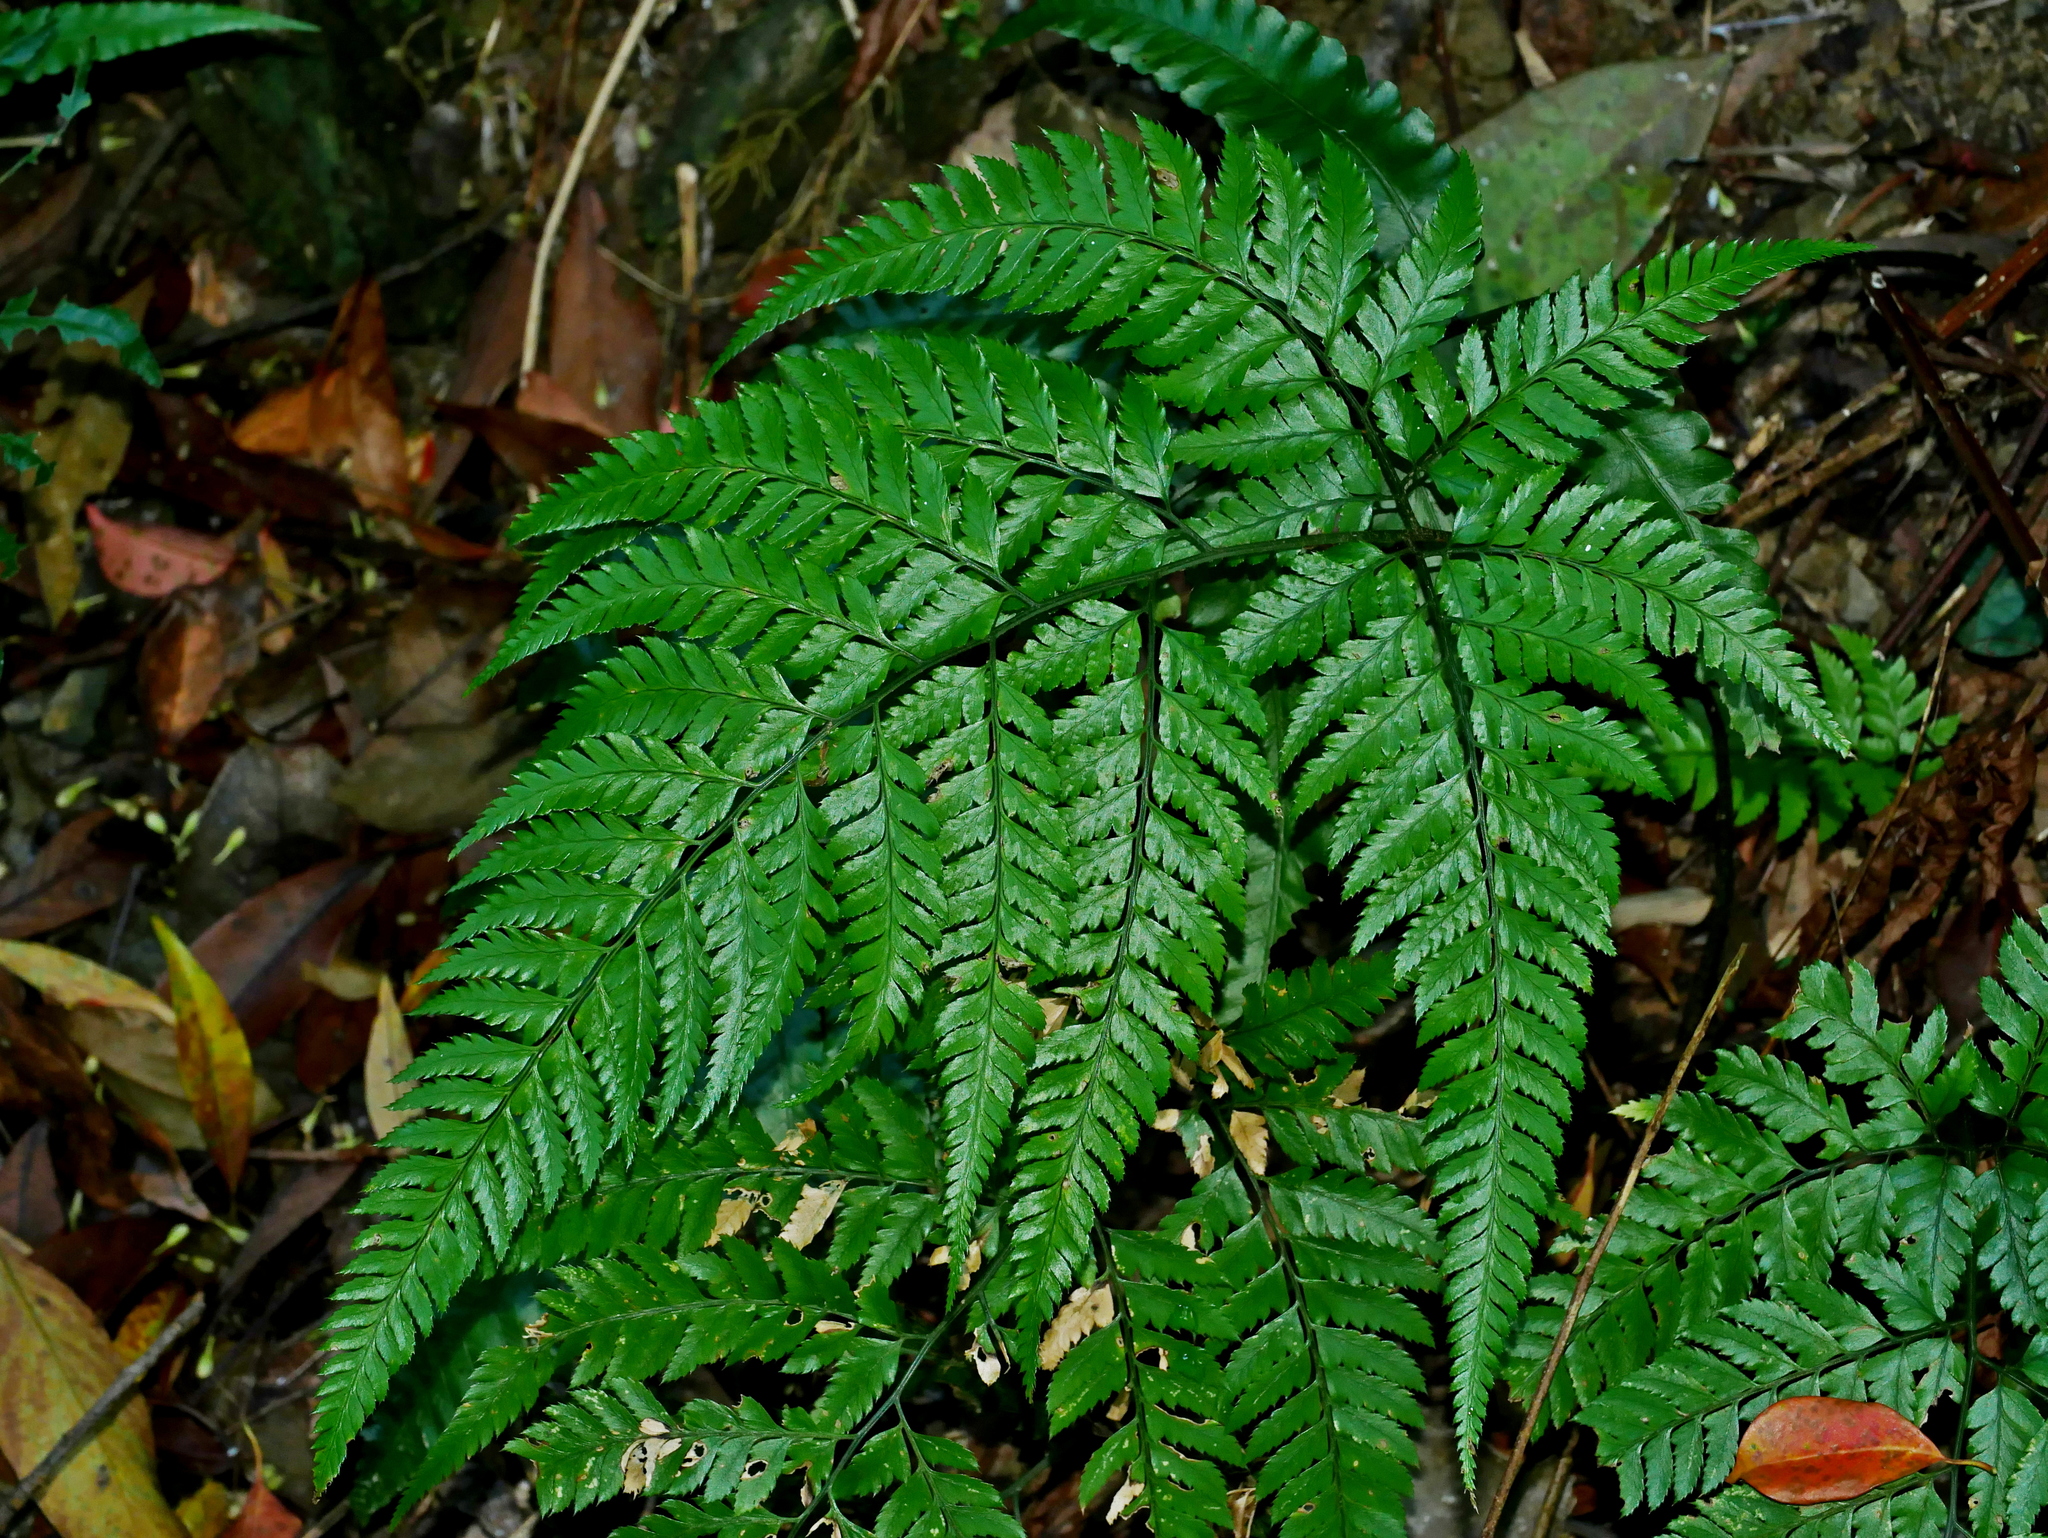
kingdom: Plantae
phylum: Tracheophyta
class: Polypodiopsida
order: Polypodiales
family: Dryopteridaceae
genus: Arachniodes
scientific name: Arachniodes pseudoaristata
